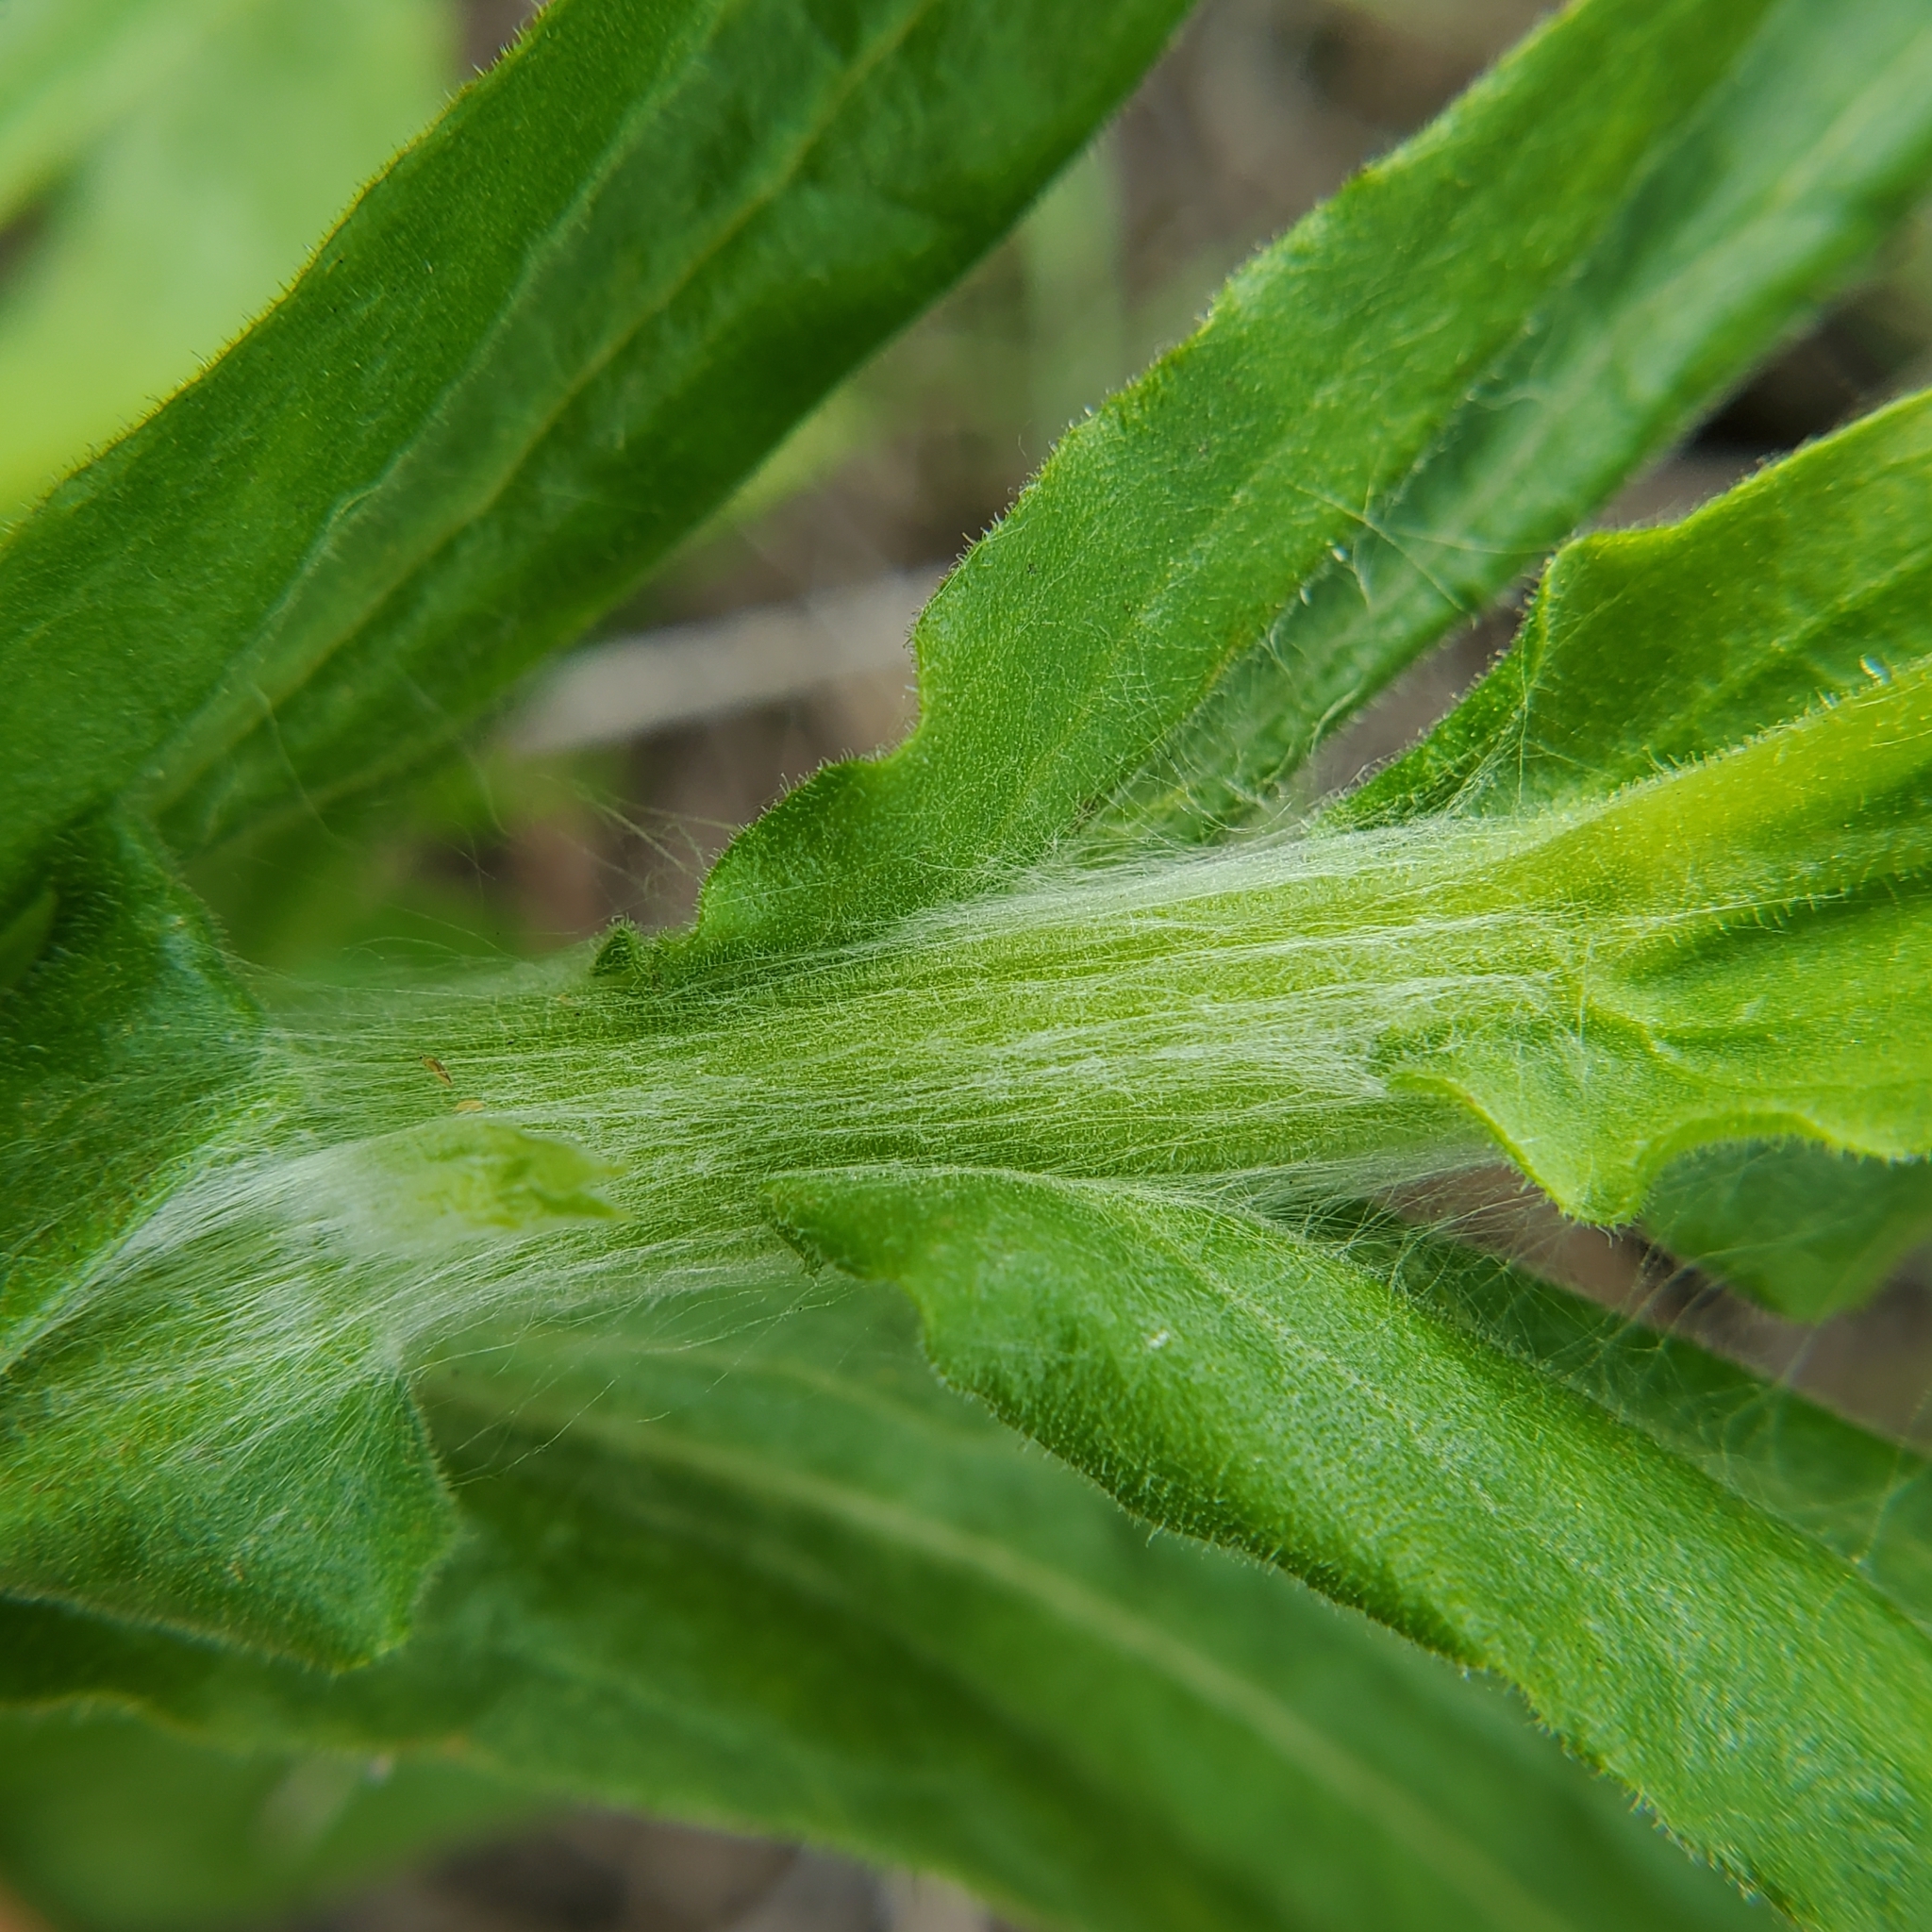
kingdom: Plantae
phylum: Tracheophyta
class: Magnoliopsida
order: Asterales
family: Asteraceae
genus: Pseudognaphalium
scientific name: Pseudognaphalium californicum
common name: California rabbit-tobacco
